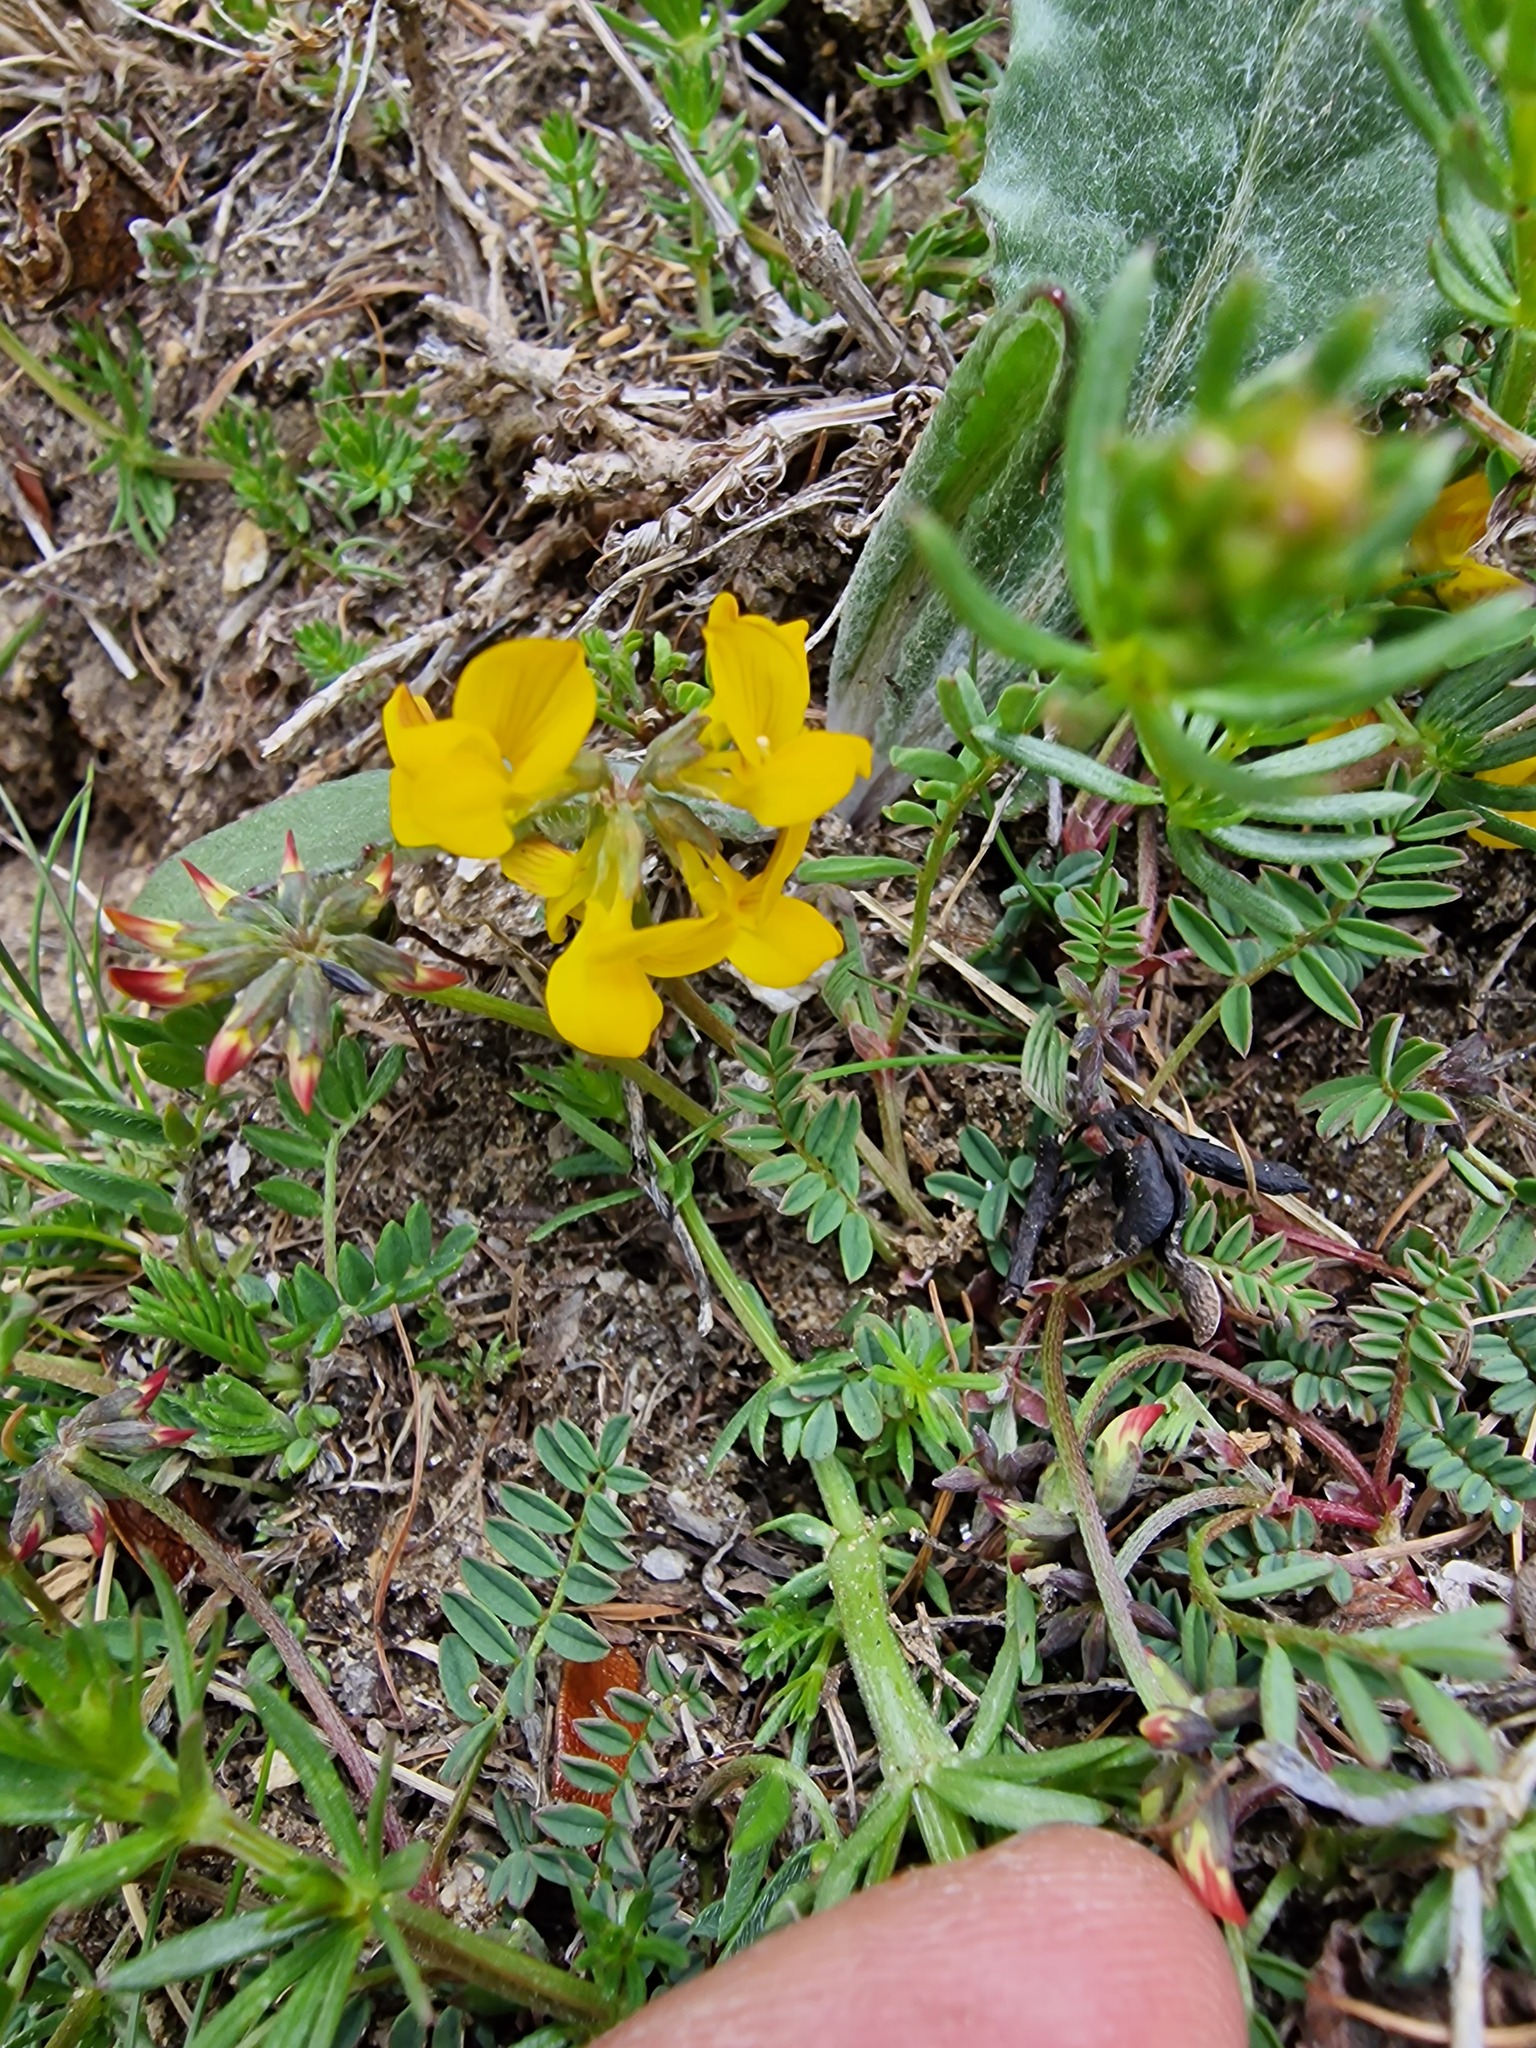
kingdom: Plantae
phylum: Tracheophyta
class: Magnoliopsida
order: Fabales
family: Fabaceae
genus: Hippocrepis
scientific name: Hippocrepis comosa
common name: Horseshoe vetch
